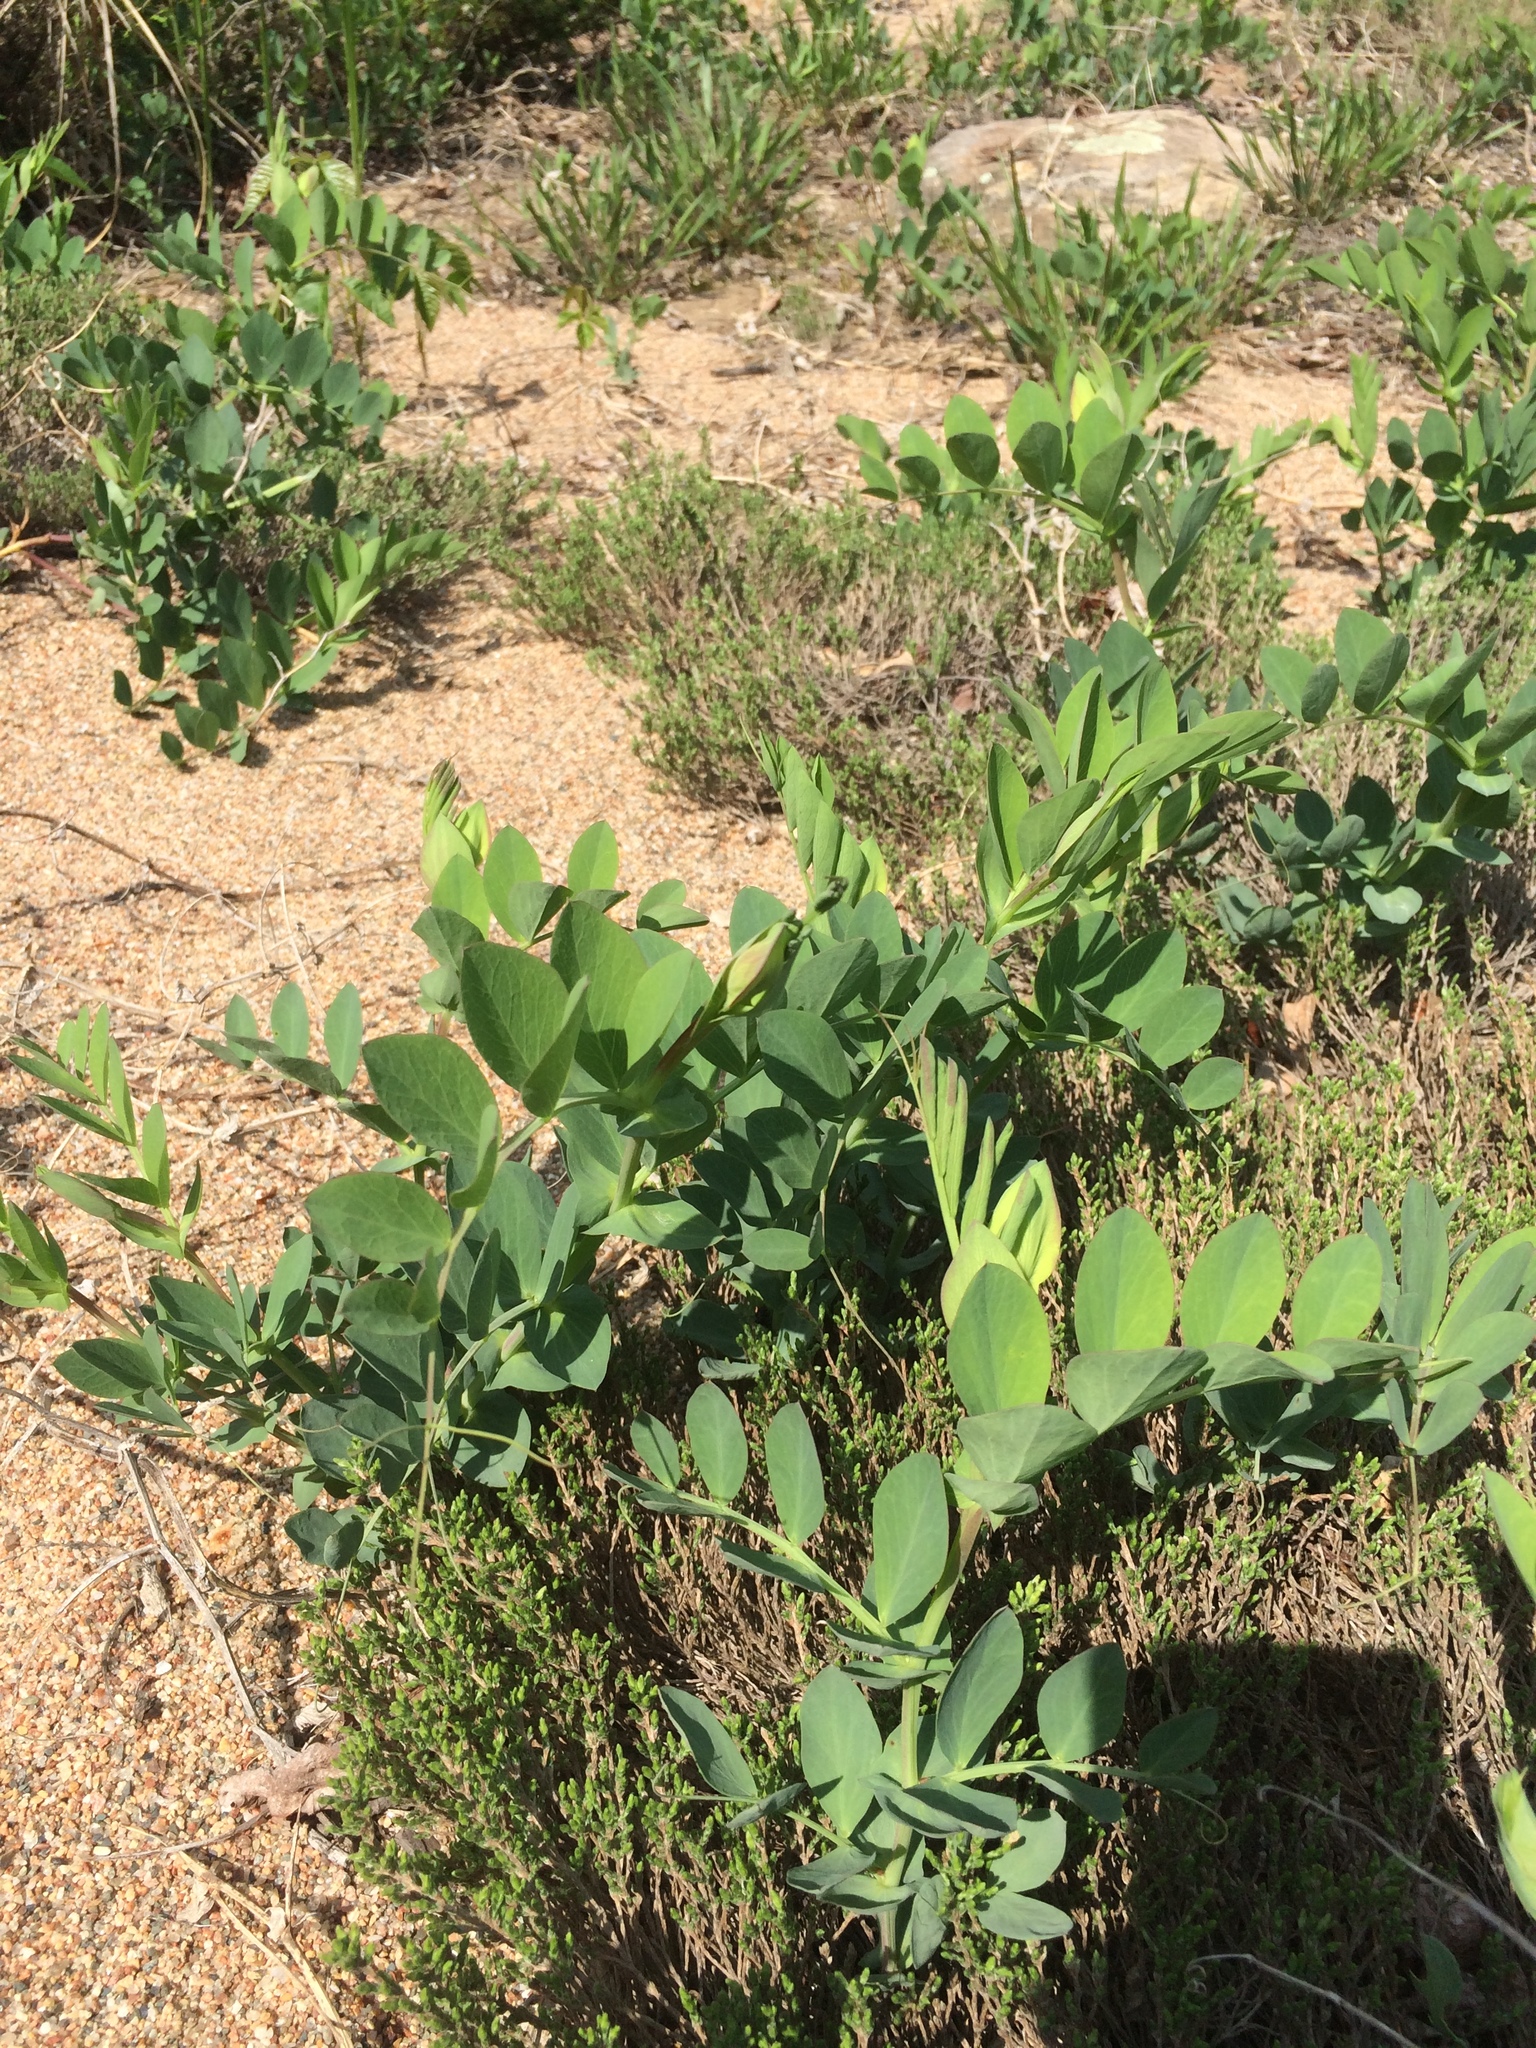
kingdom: Plantae
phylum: Tracheophyta
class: Magnoliopsida
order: Fabales
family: Fabaceae
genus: Lathyrus
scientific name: Lathyrus japonicus
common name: Sea pea
